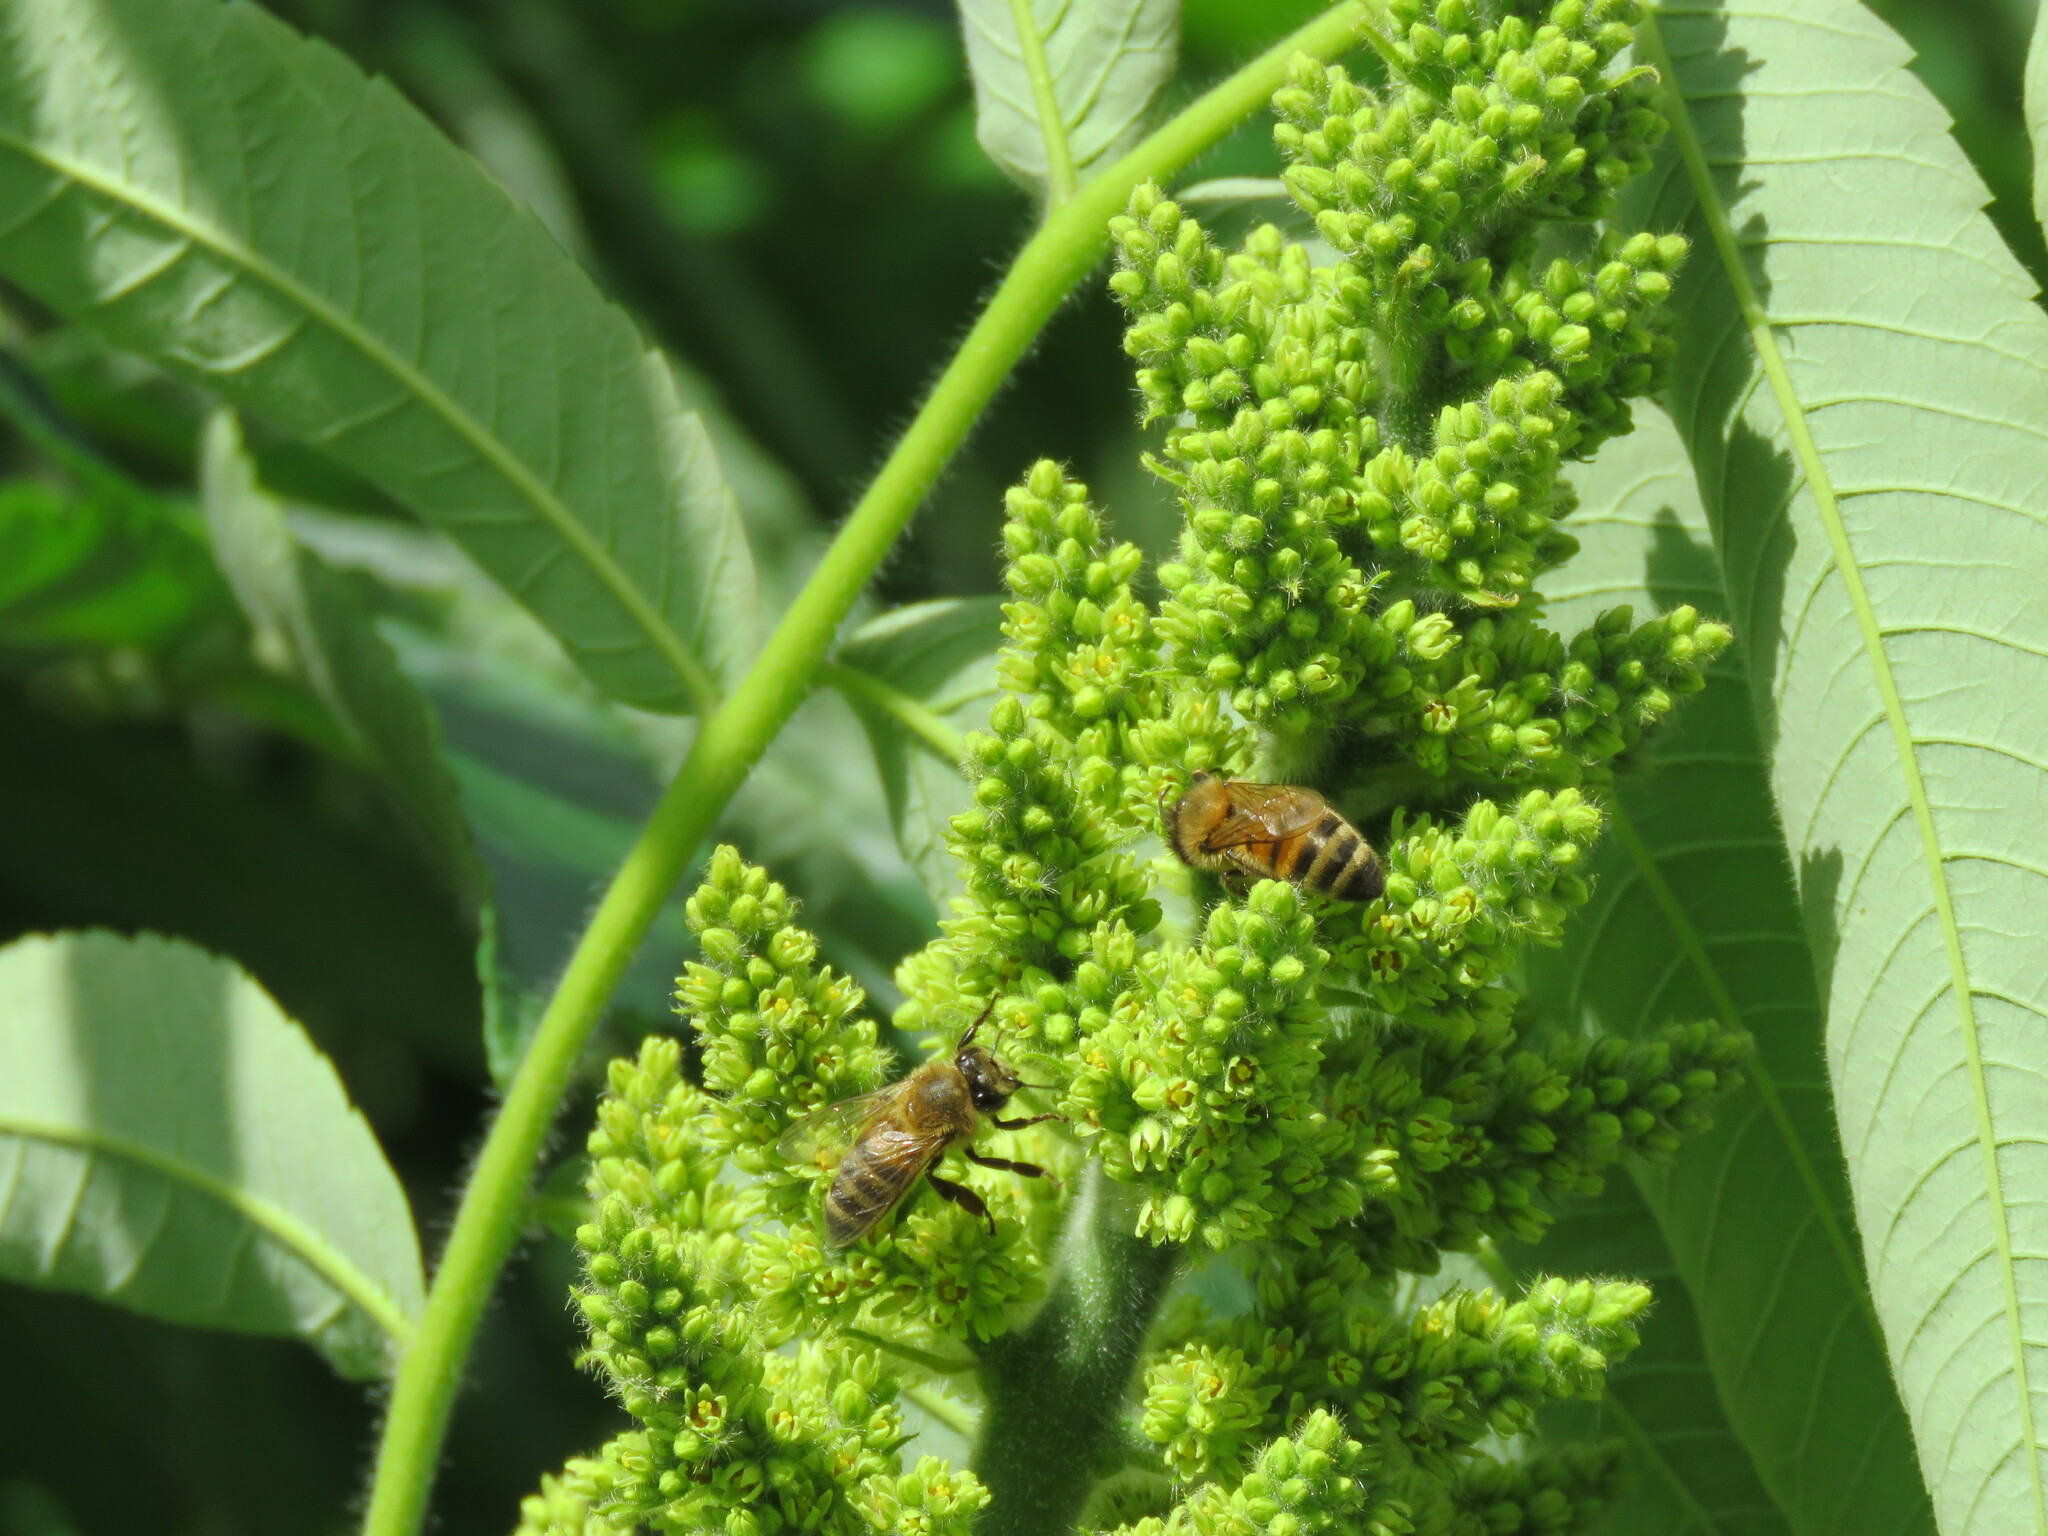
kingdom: Animalia
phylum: Arthropoda
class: Insecta
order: Hymenoptera
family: Apidae
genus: Apis
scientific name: Apis mellifera
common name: Honey bee
